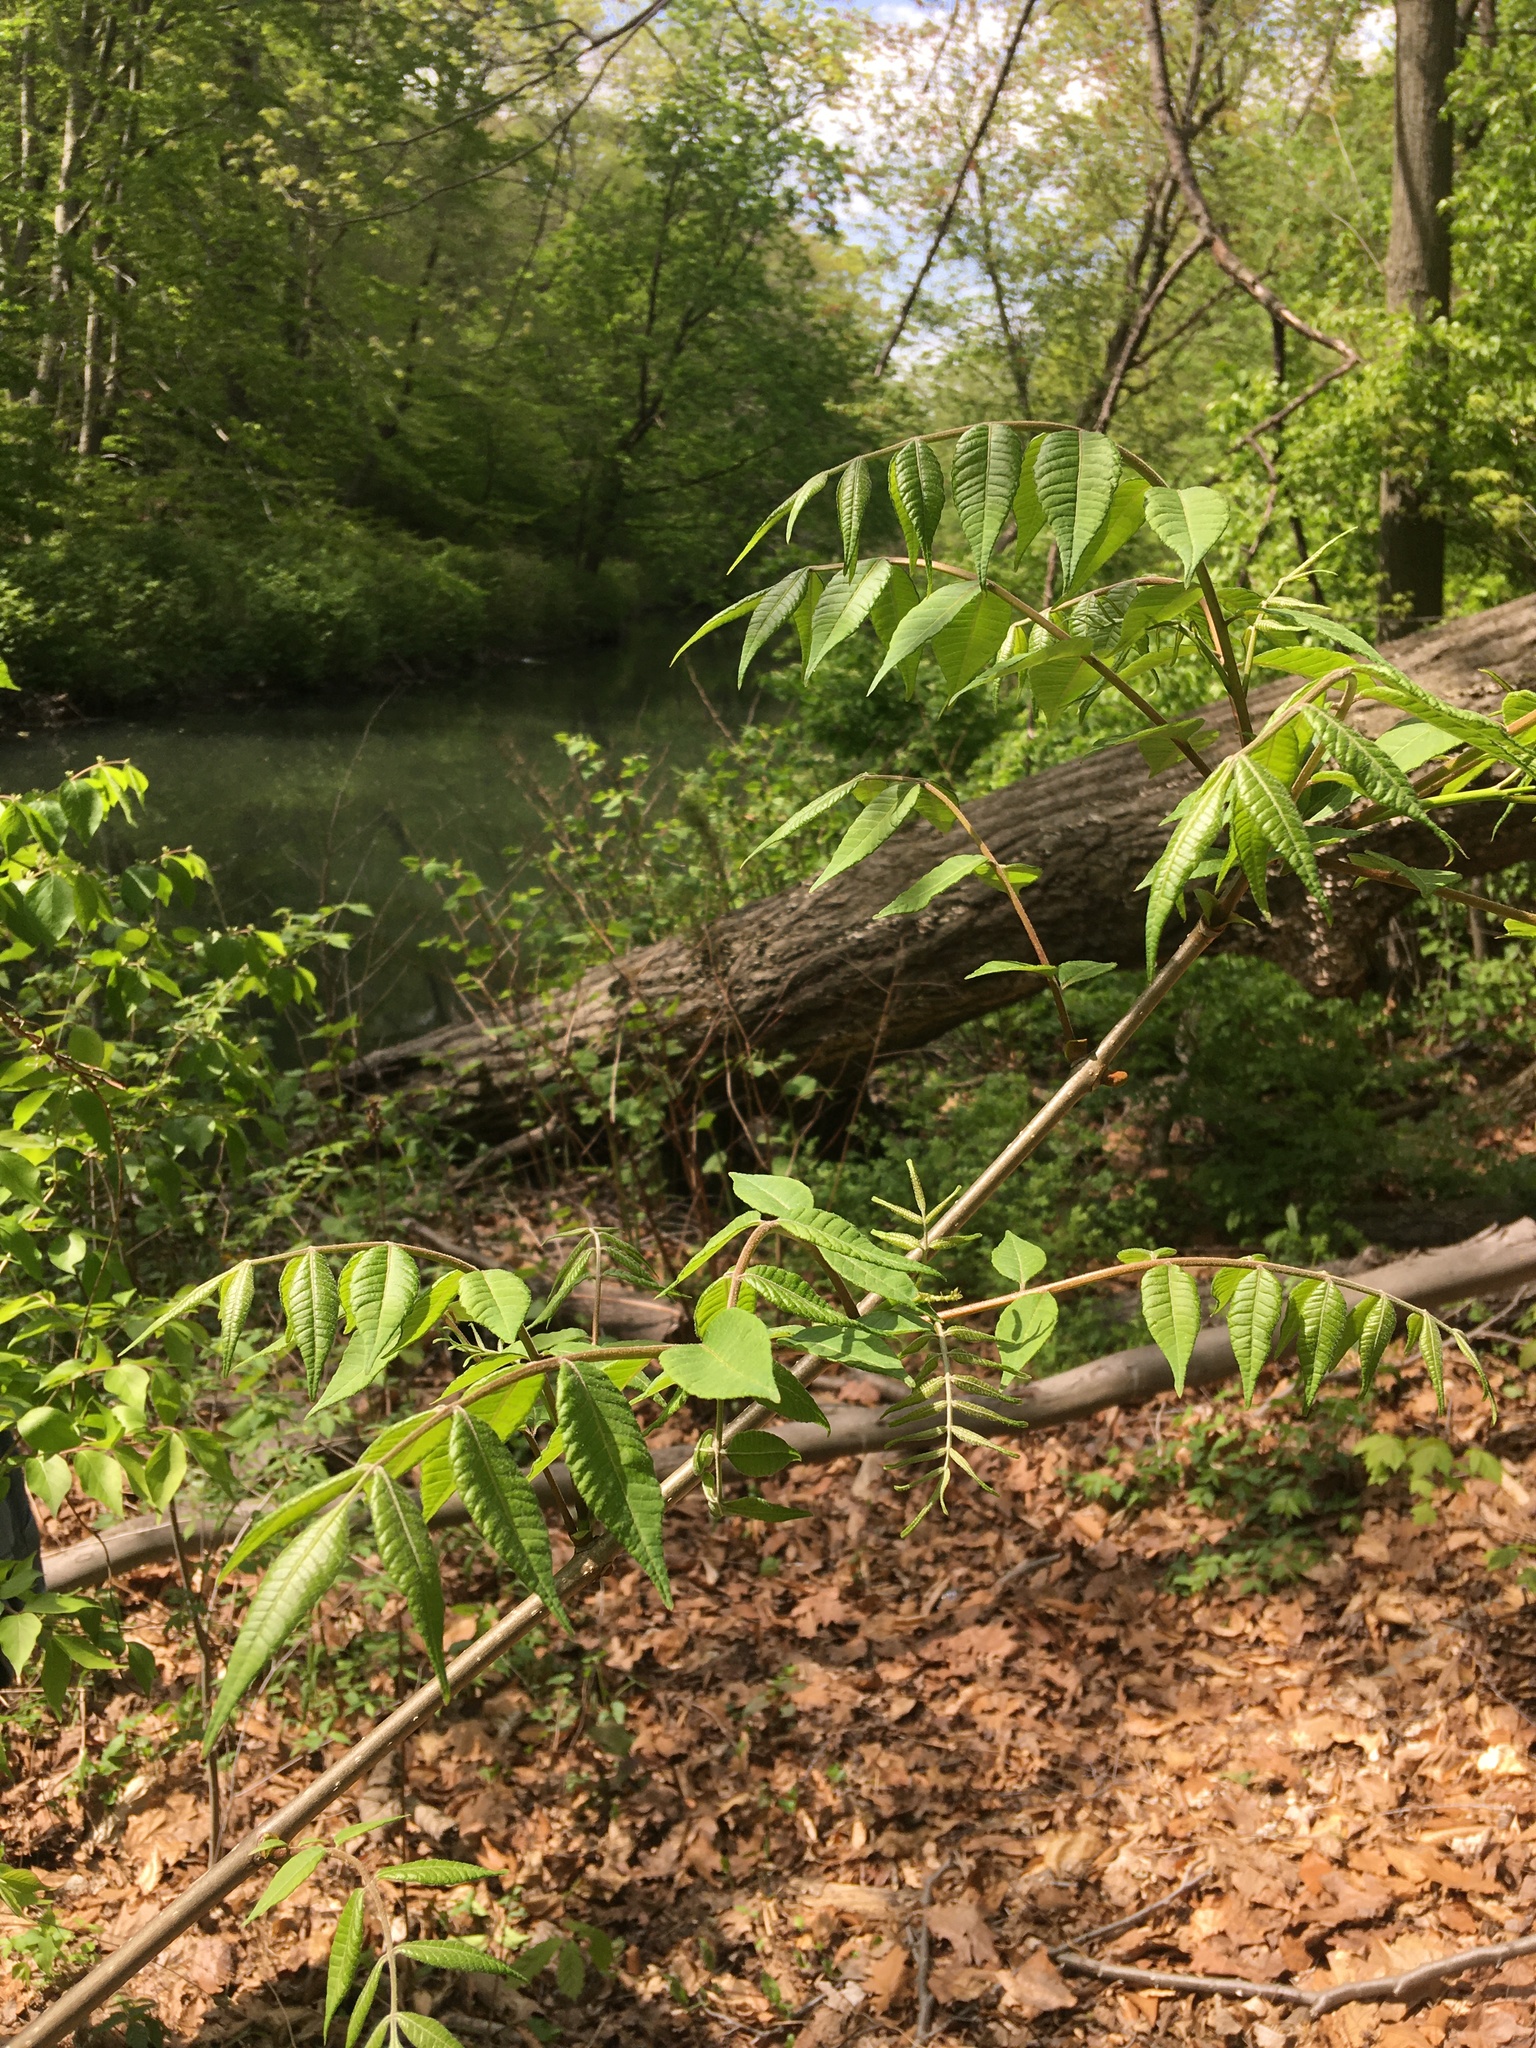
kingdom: Plantae
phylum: Tracheophyta
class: Magnoliopsida
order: Sapindales
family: Rutaceae
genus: Phellodendron
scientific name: Phellodendron amurense
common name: Amur corktree
